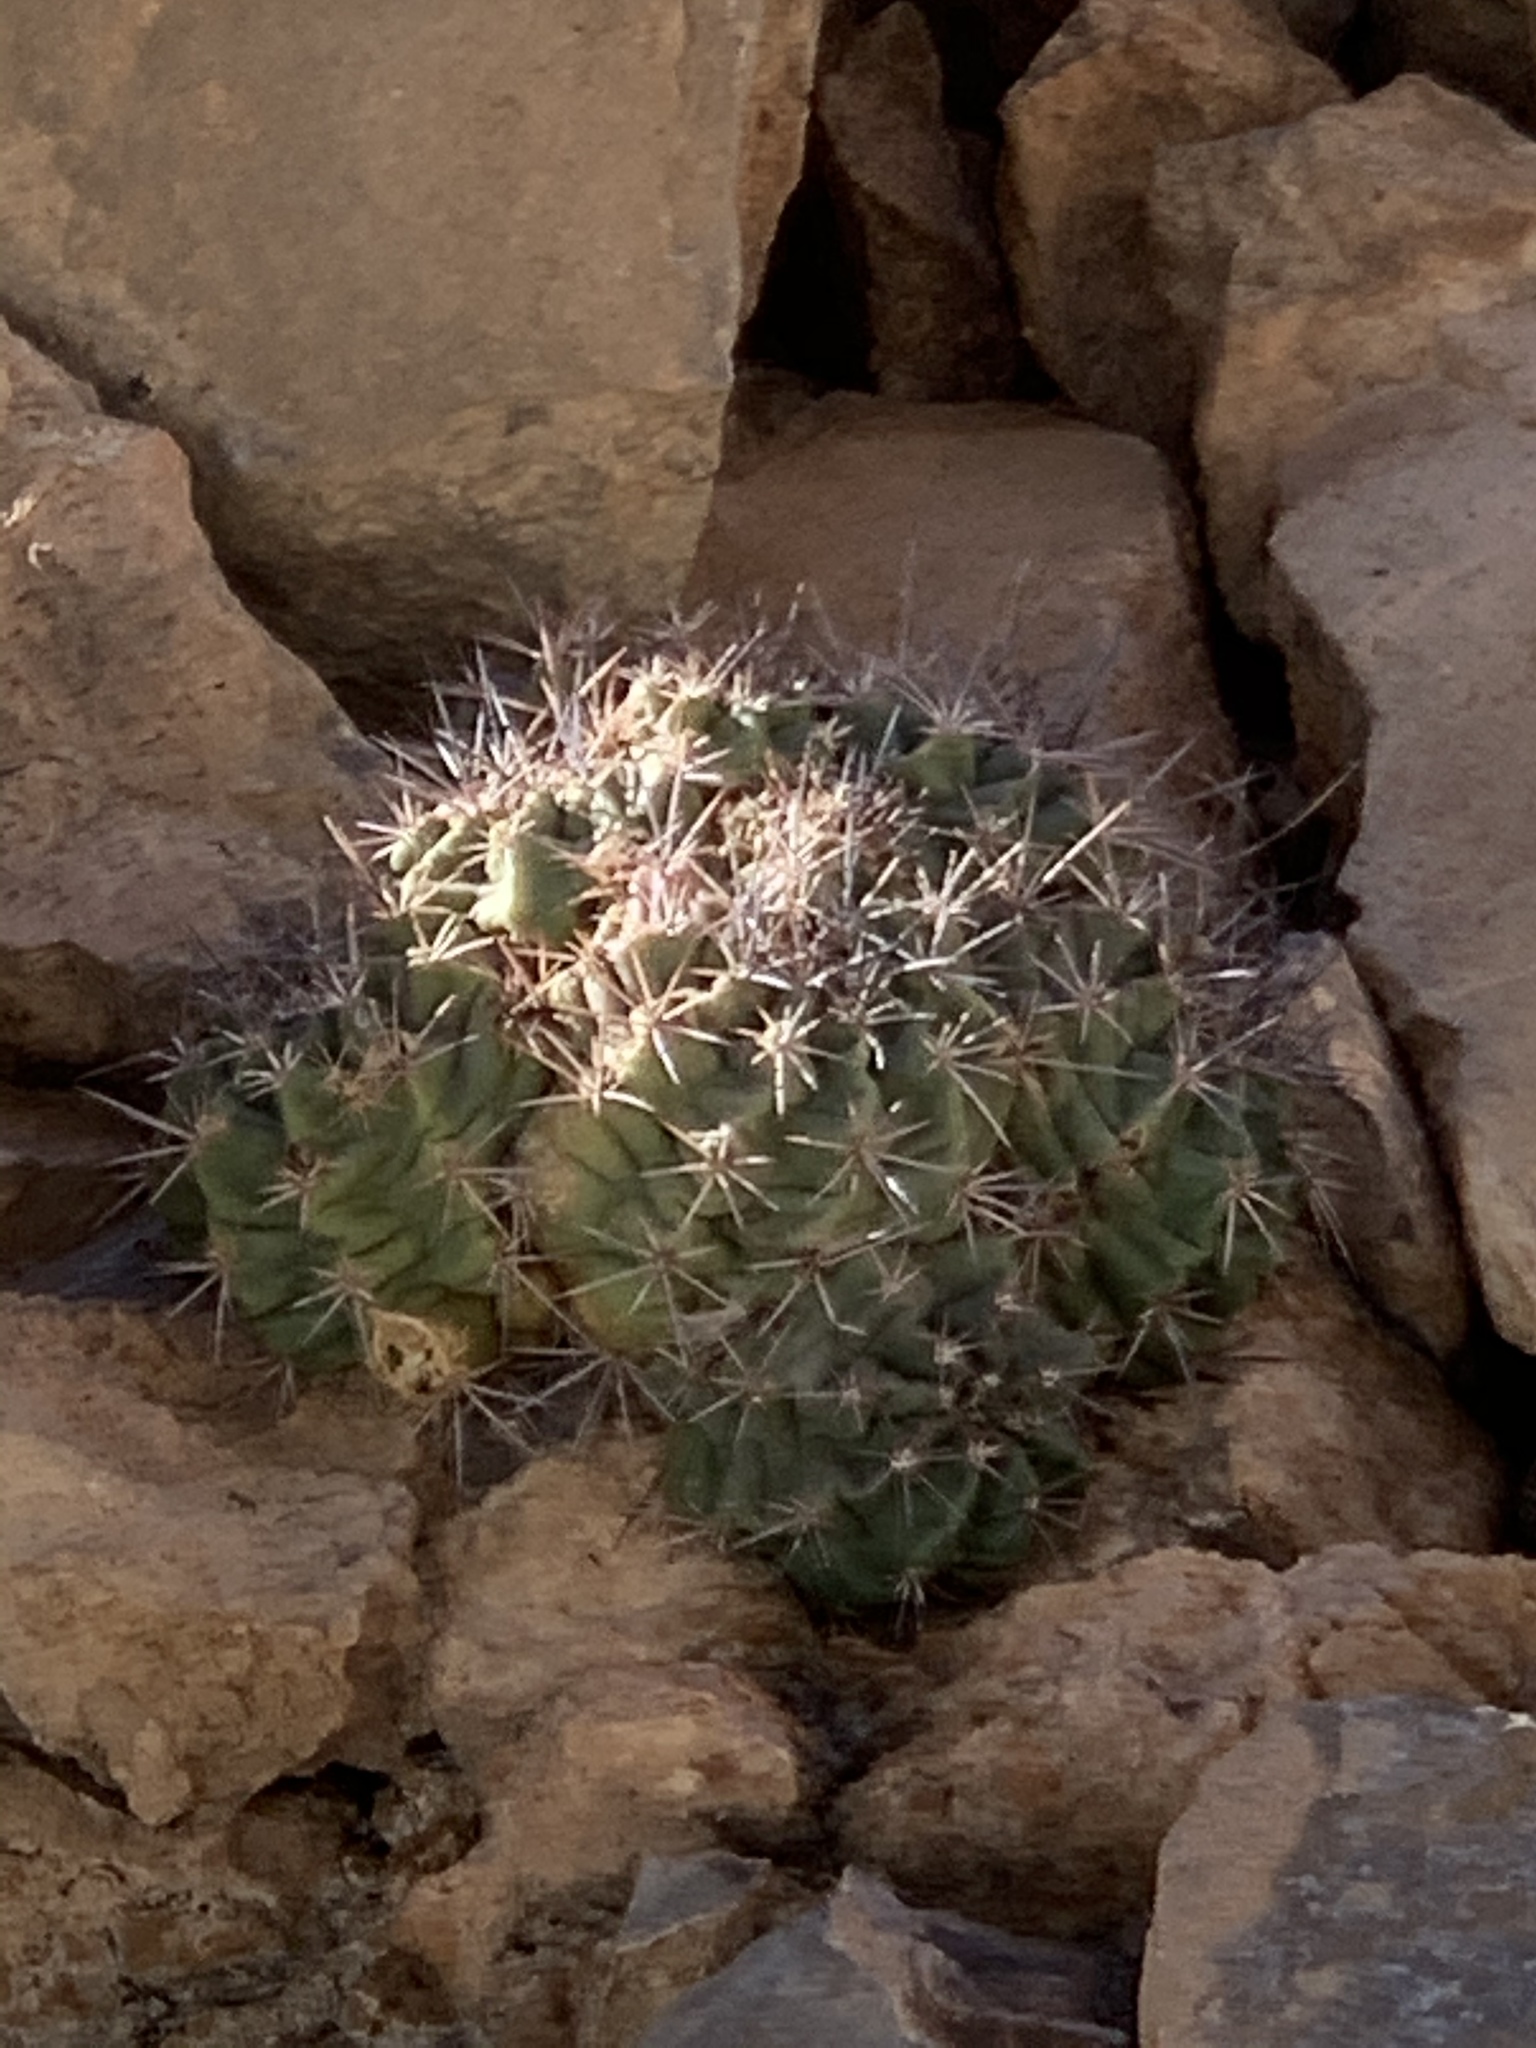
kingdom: Plantae
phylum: Tracheophyta
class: Magnoliopsida
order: Caryophyllales
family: Cactaceae
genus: Echinocereus
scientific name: Echinocereus coccineus
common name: Scarlet hedgehog cactus
